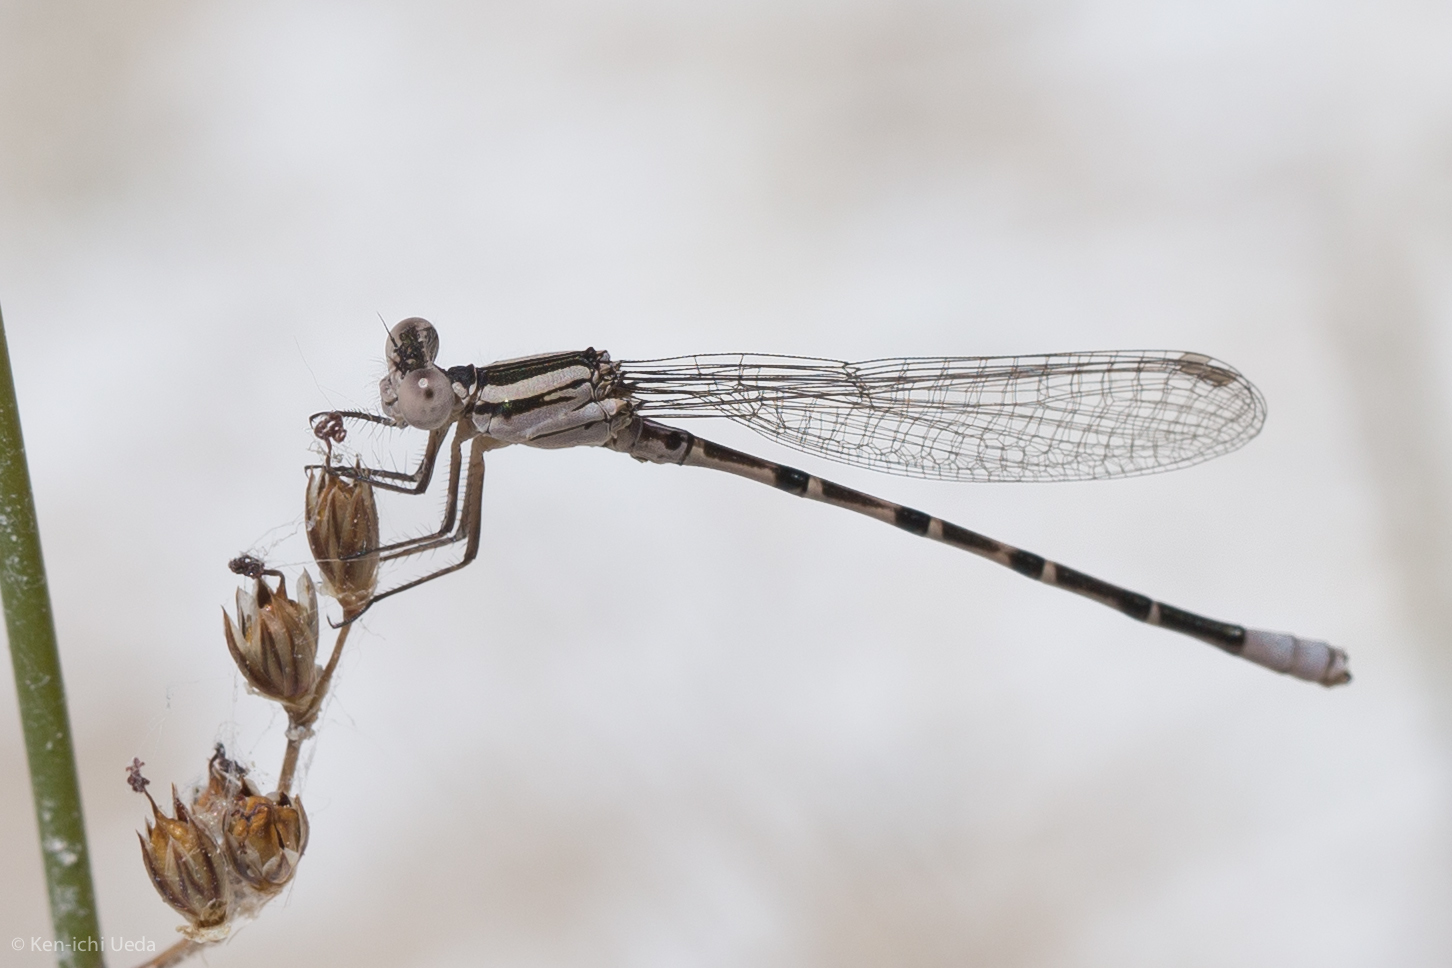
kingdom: Animalia
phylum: Arthropoda
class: Insecta
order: Odonata
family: Coenagrionidae
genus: Argia
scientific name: Argia alberta
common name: Paiute dancer
